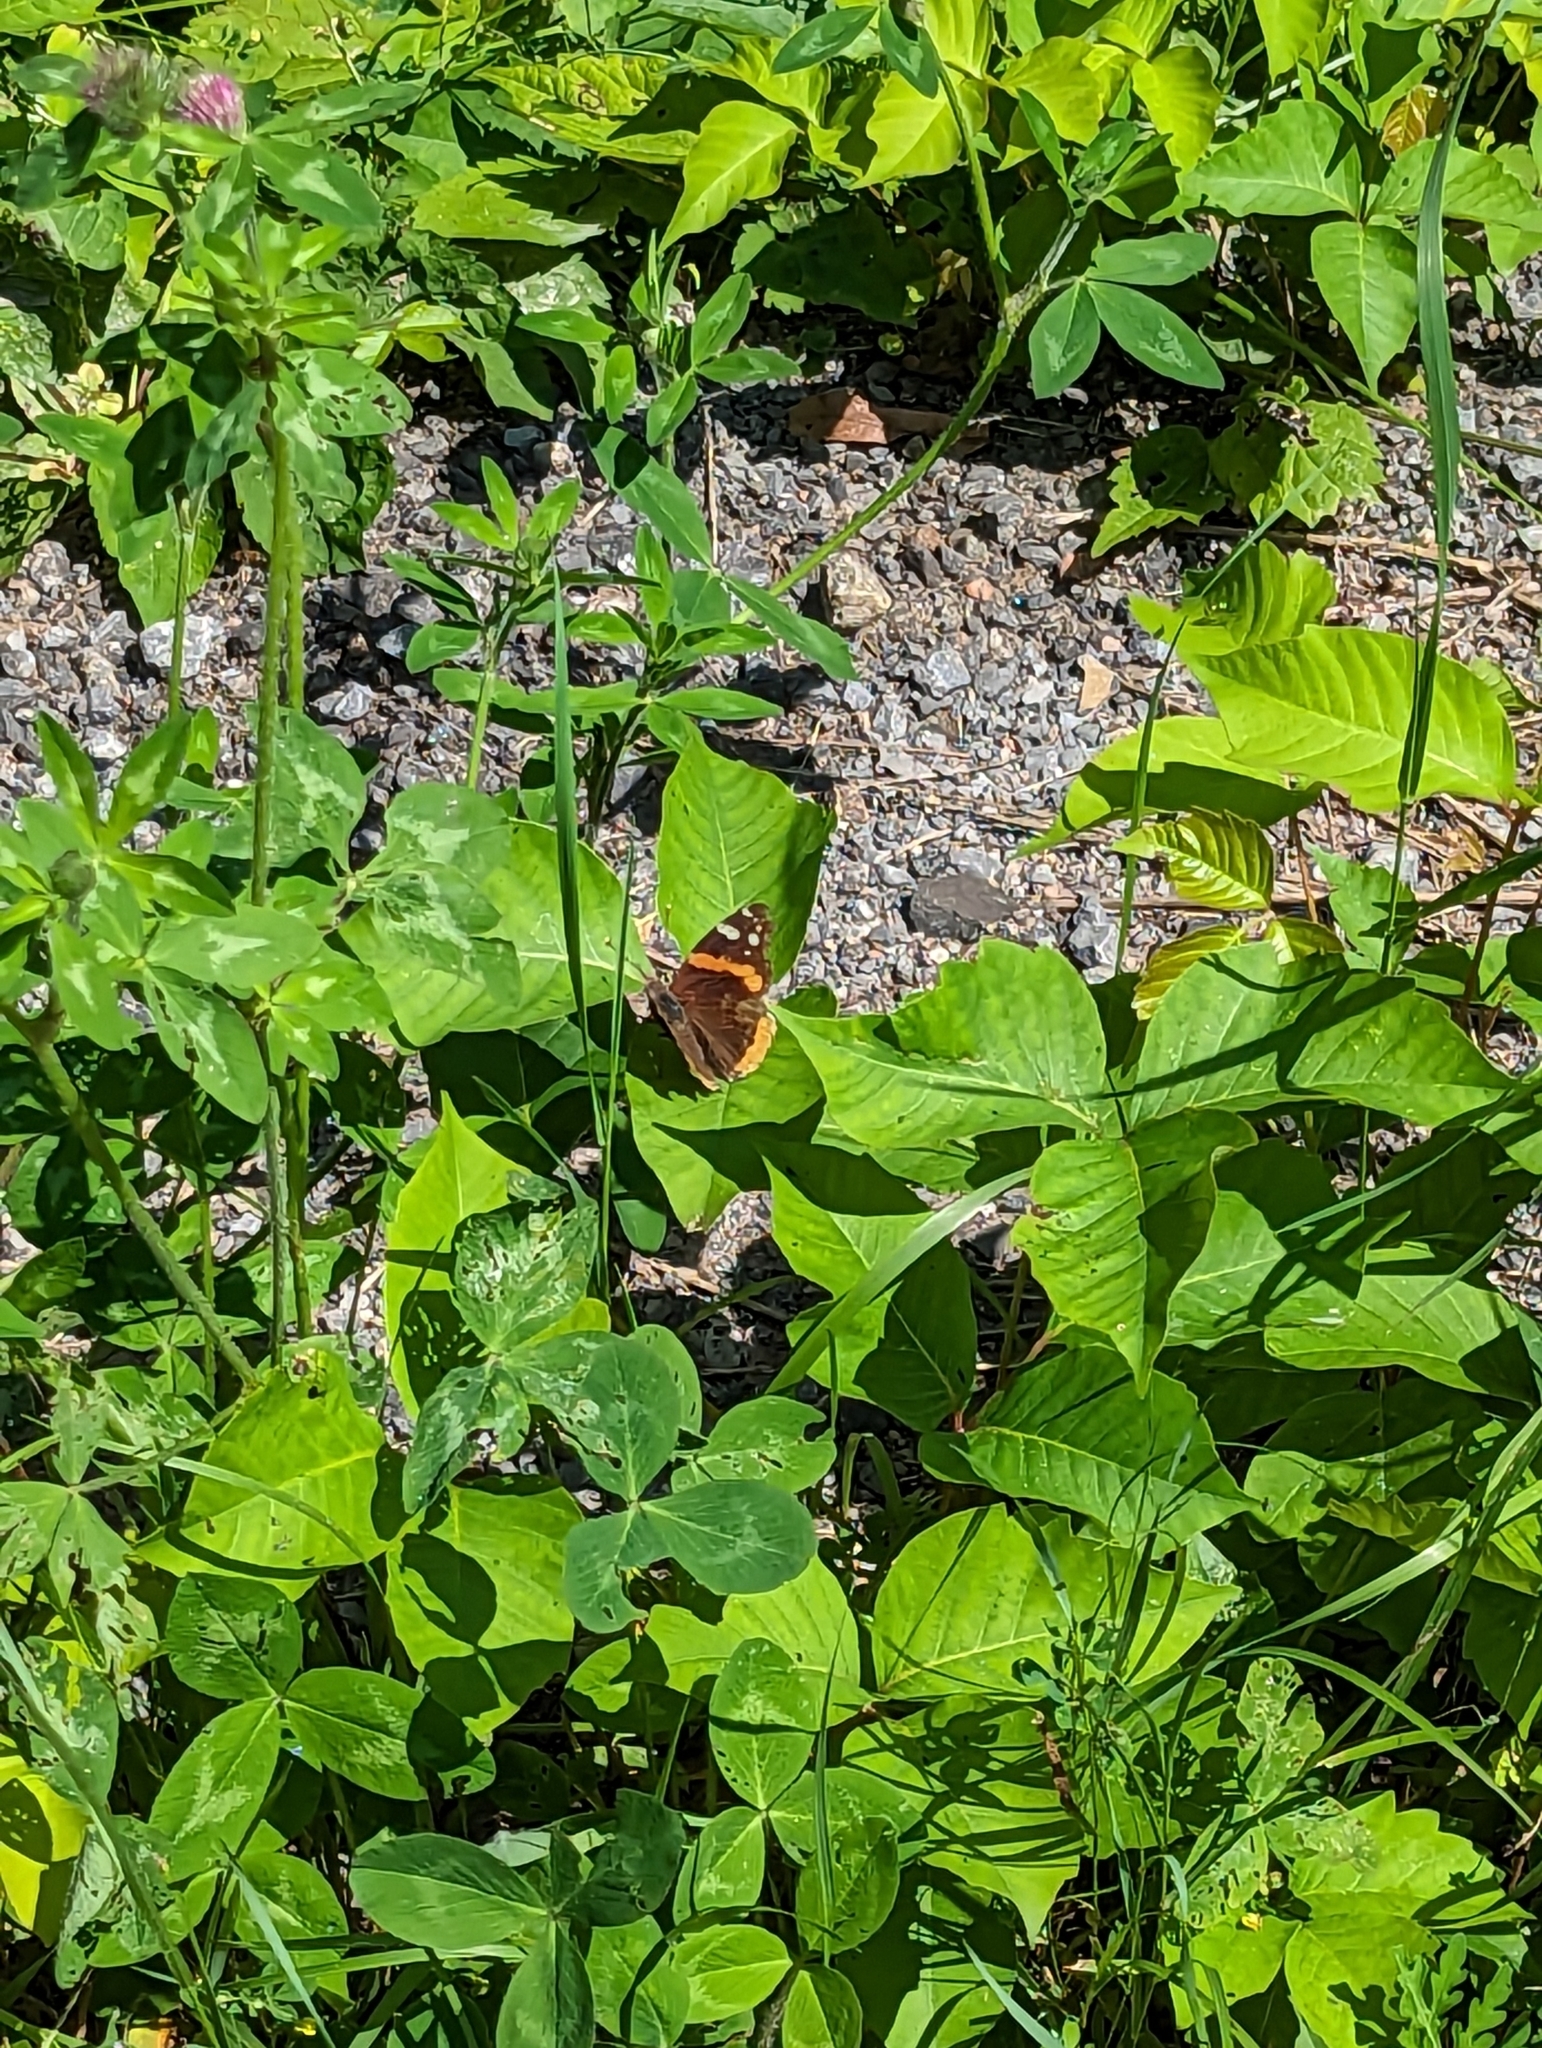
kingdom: Animalia
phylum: Arthropoda
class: Insecta
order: Lepidoptera
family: Nymphalidae
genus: Vanessa
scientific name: Vanessa atalanta
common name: Red admiral
